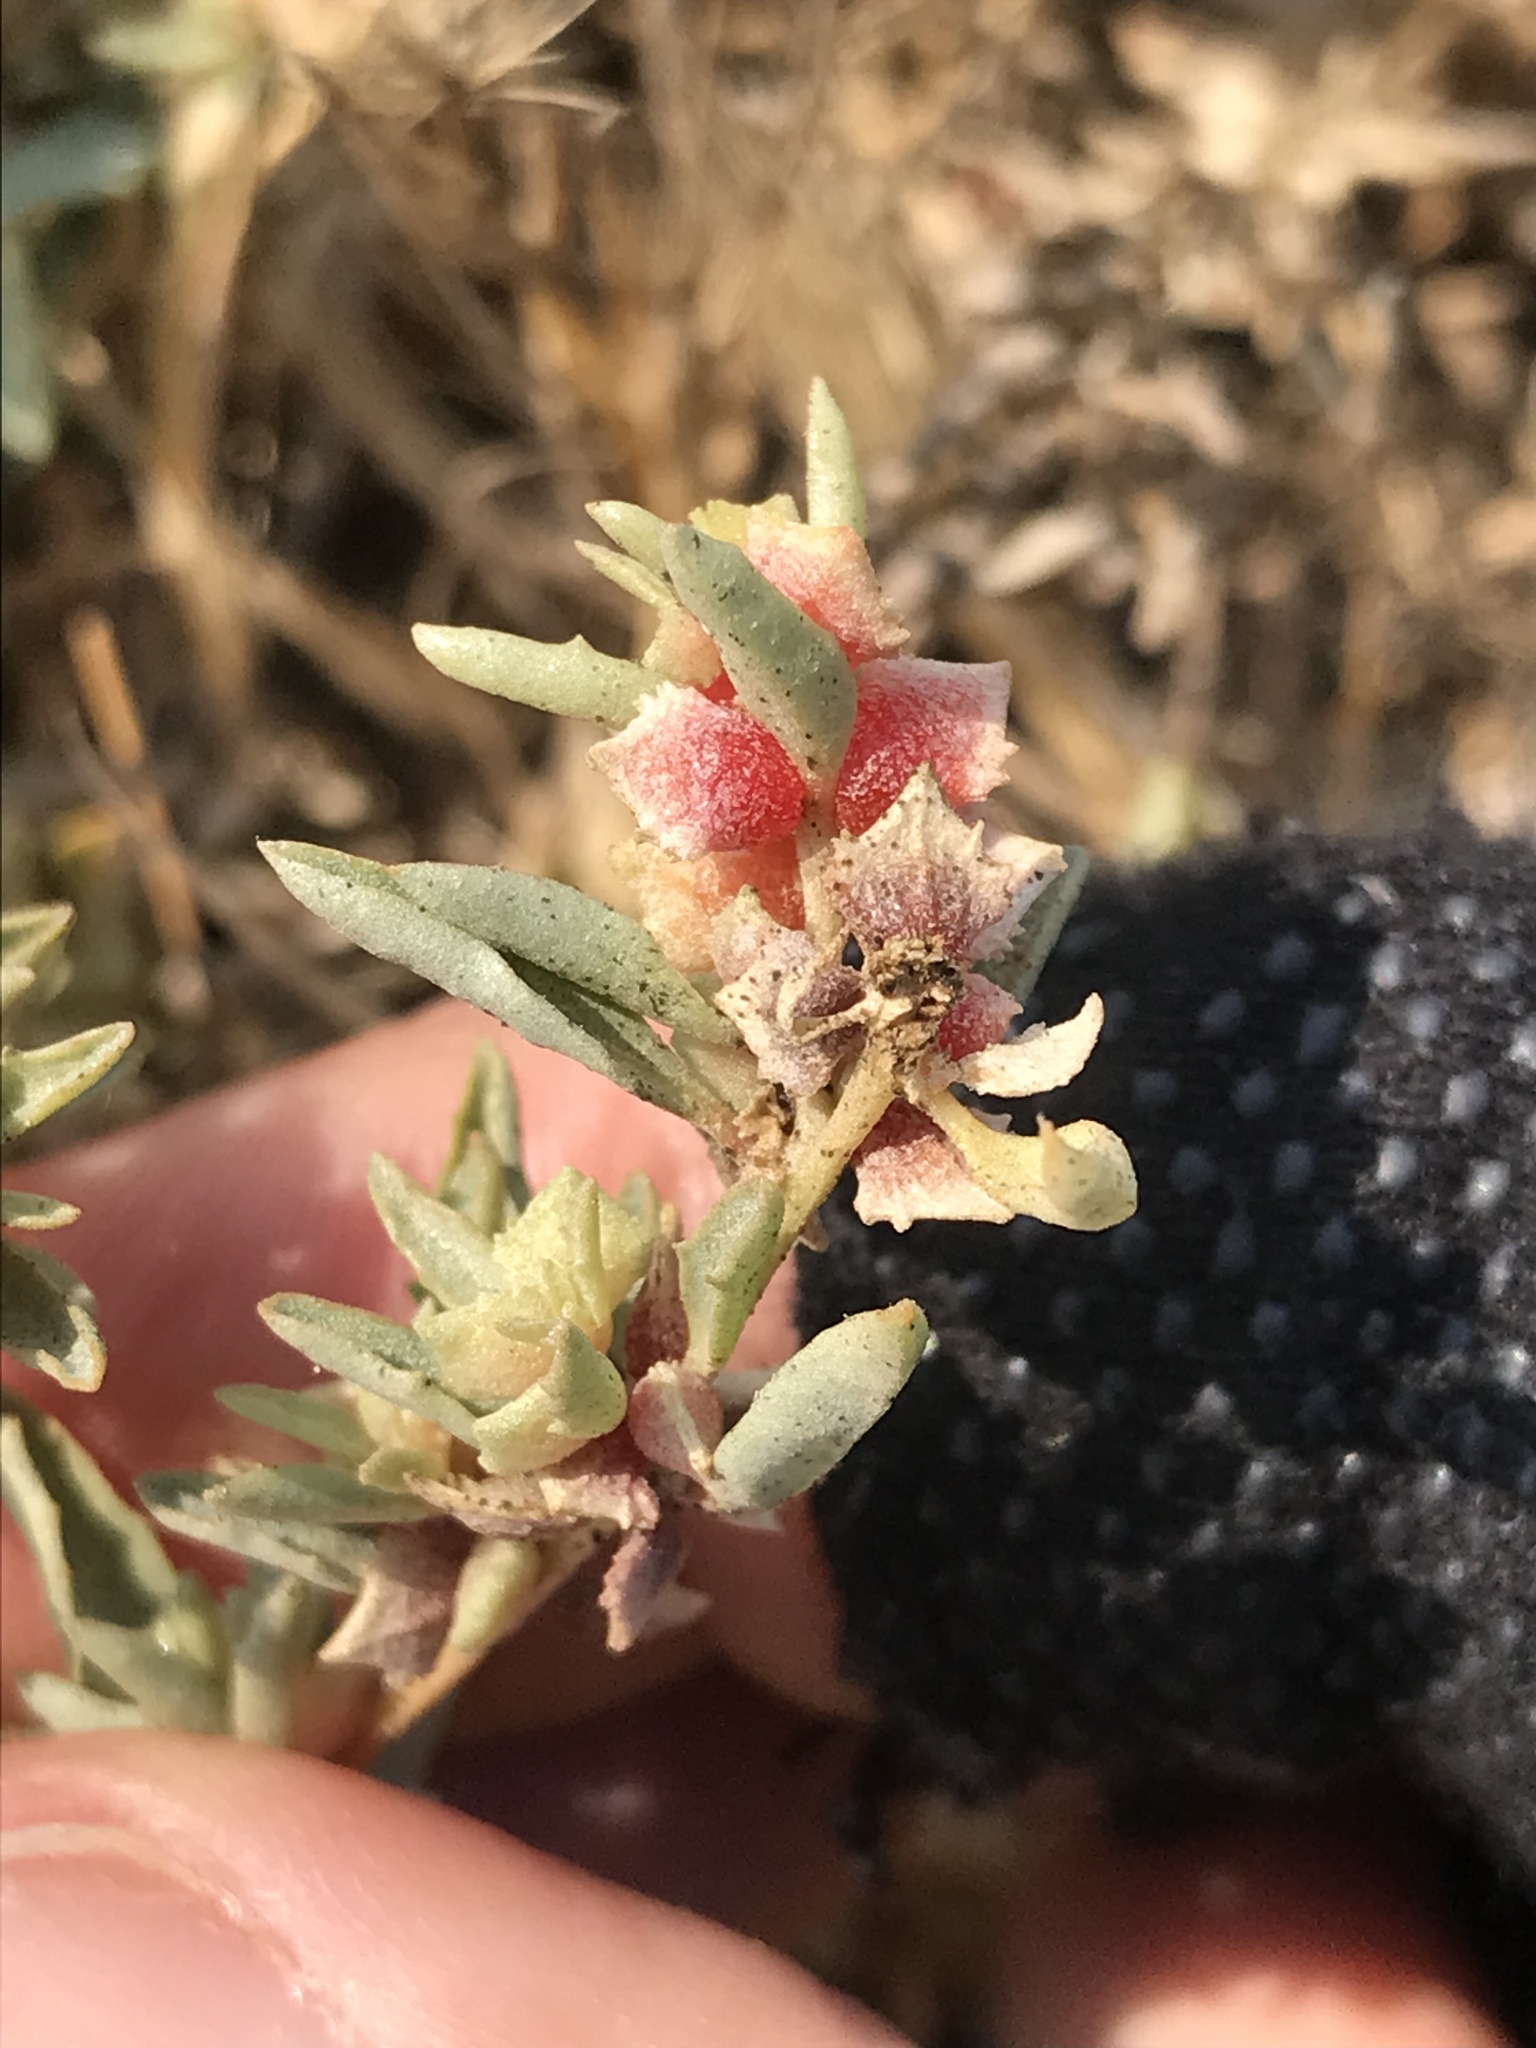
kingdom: Plantae
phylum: Tracheophyta
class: Magnoliopsida
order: Caryophyllales
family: Amaranthaceae
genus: Atriplex
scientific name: Atriplex semibaccata
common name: Australian saltbush
